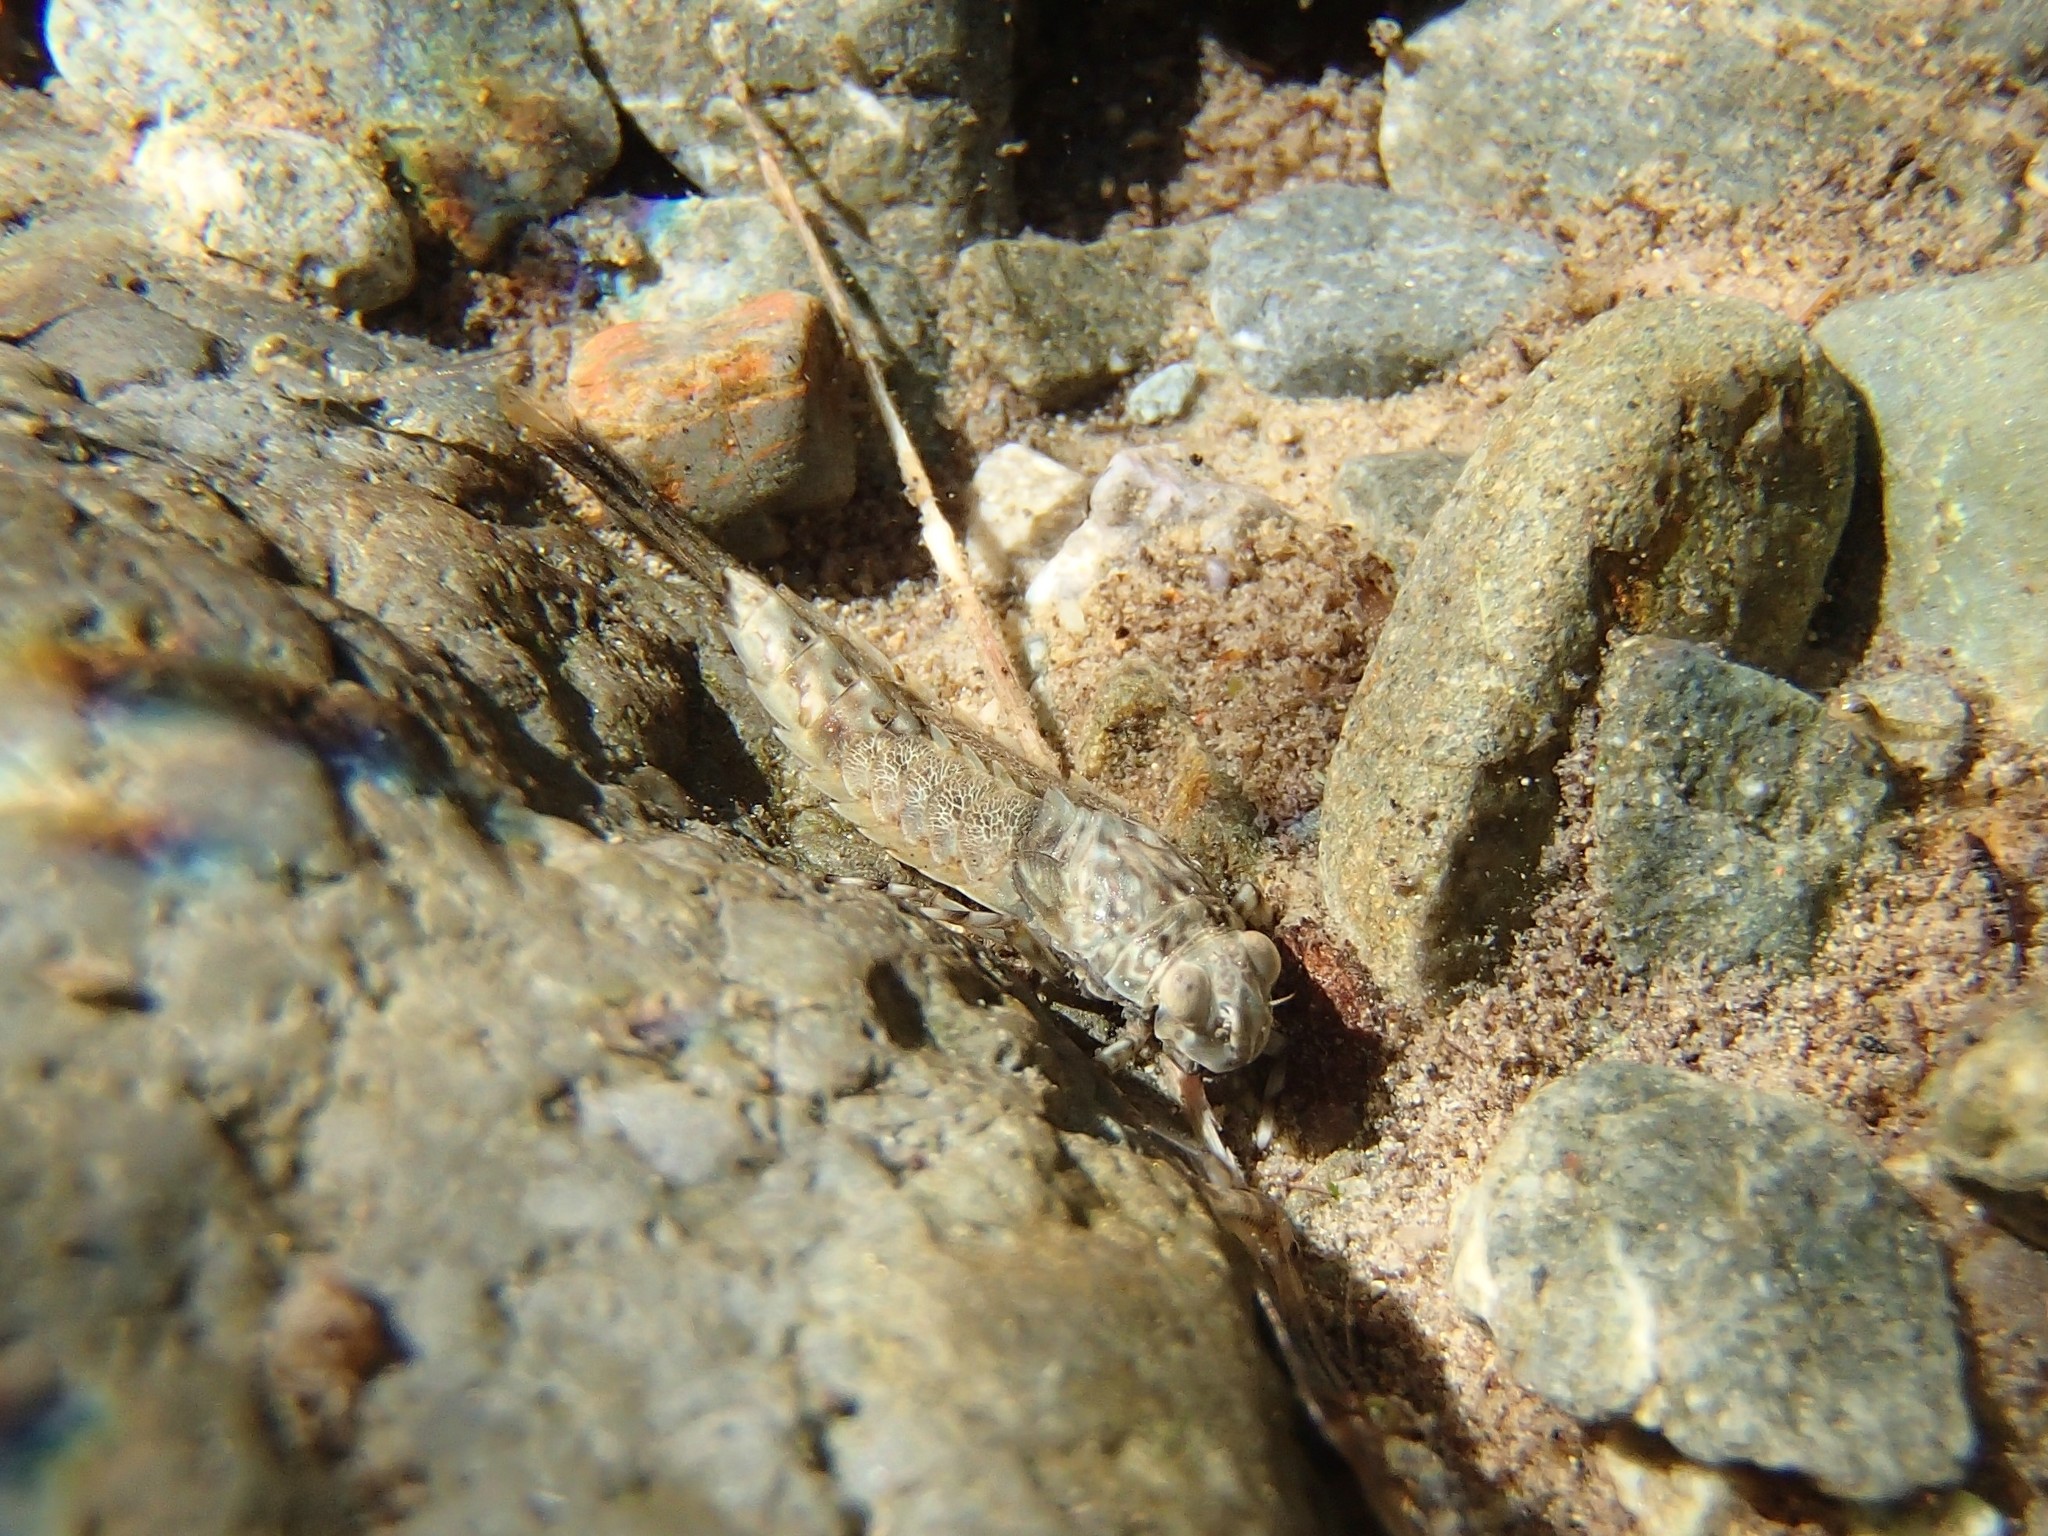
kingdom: Animalia
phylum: Arthropoda
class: Insecta
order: Ephemeroptera
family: Oniscigastridae
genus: Oniscigaster
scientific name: Oniscigaster distans
